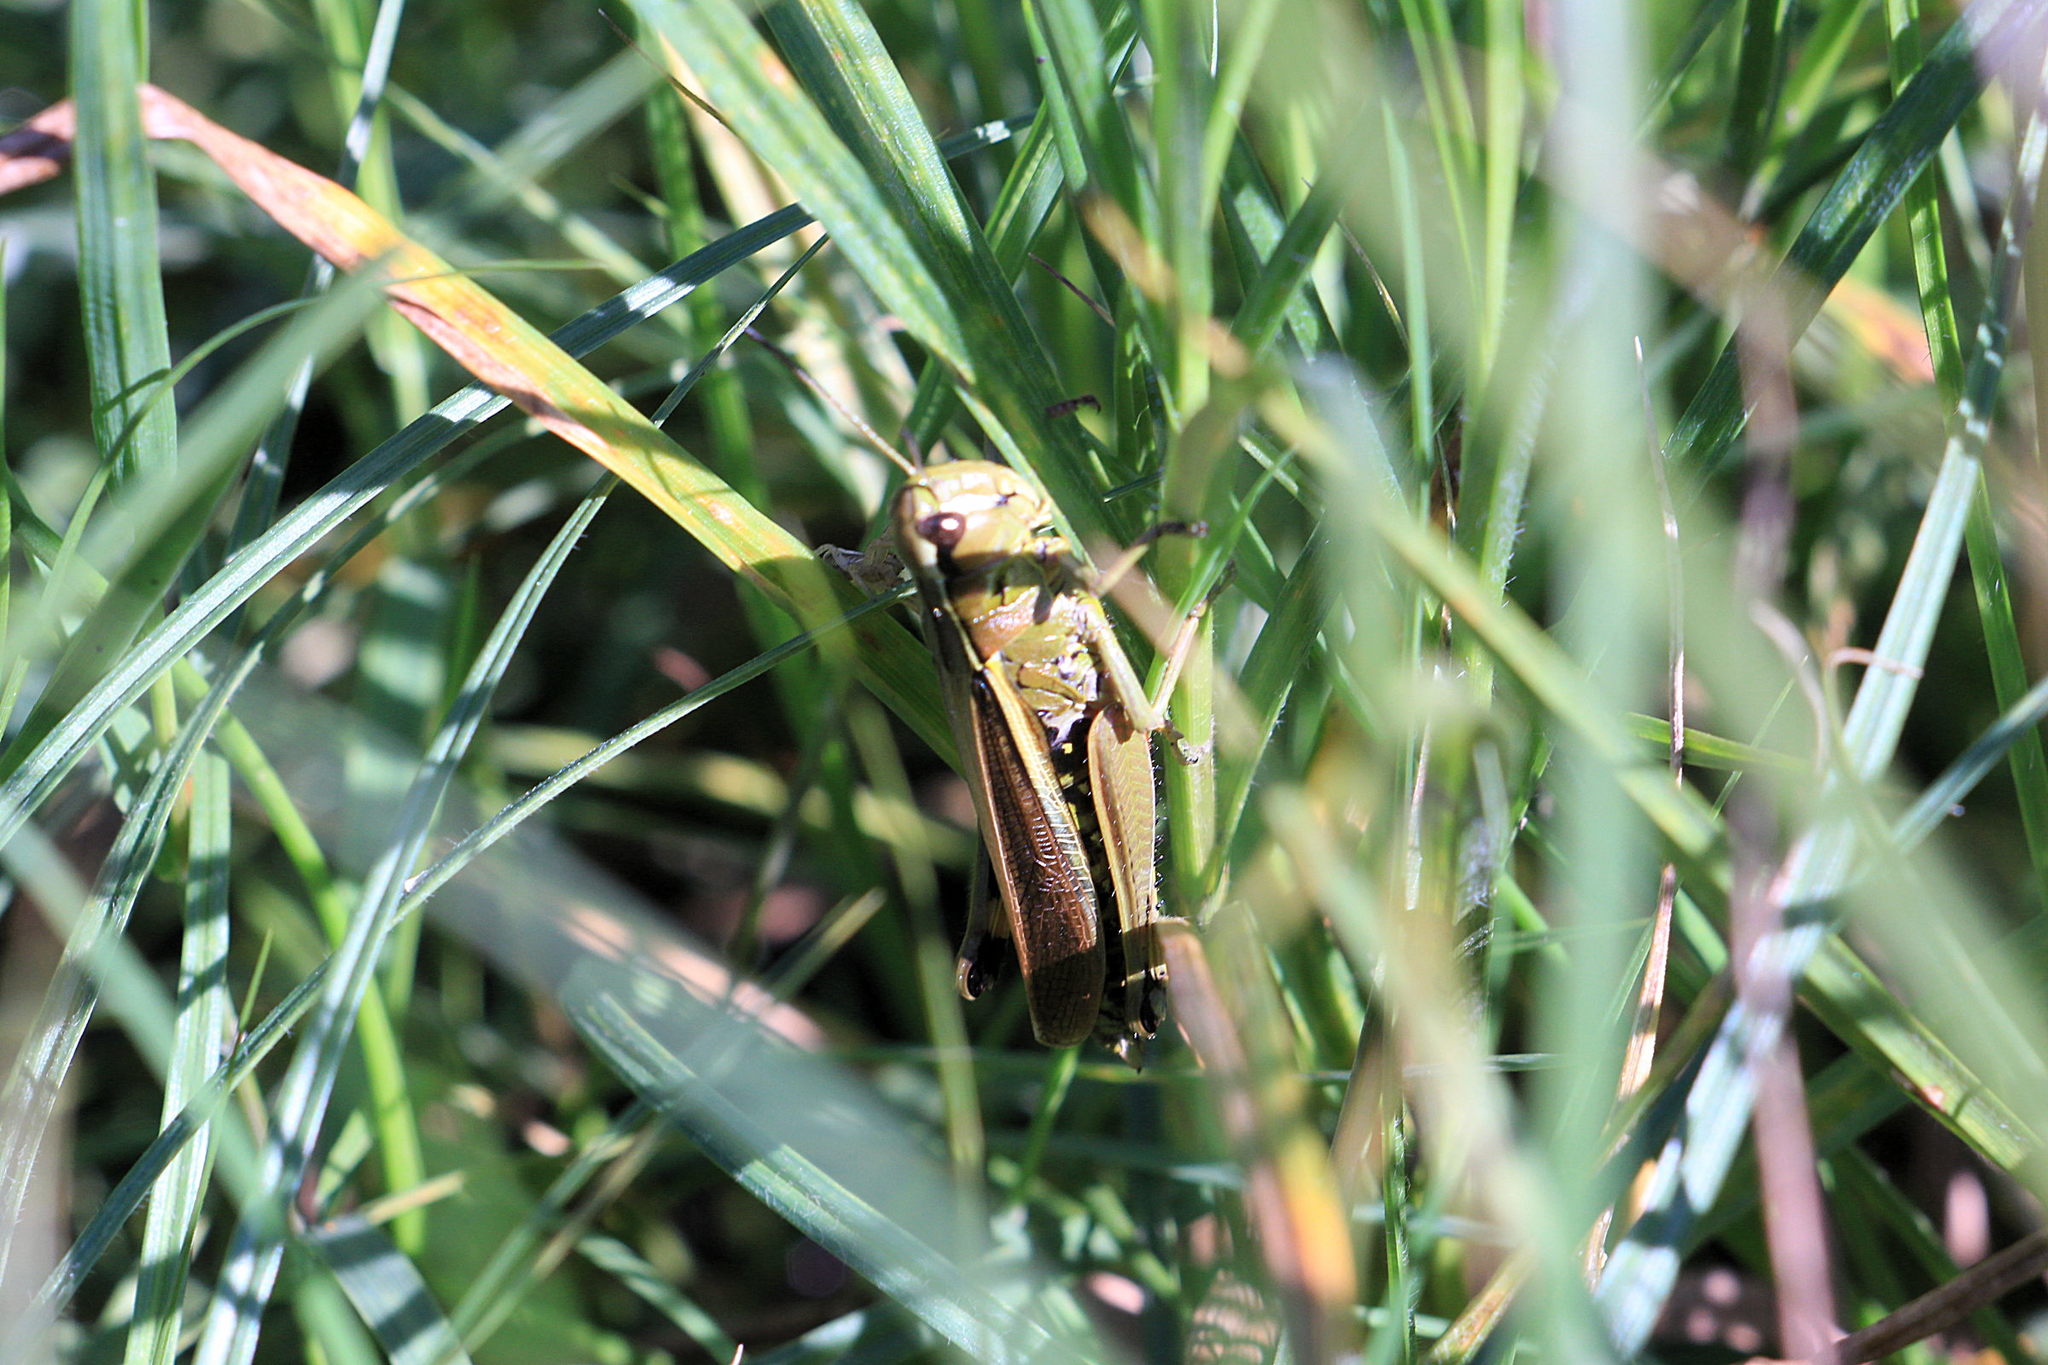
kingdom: Animalia
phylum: Arthropoda
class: Insecta
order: Orthoptera
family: Acrididae
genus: Stethophyma
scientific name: Stethophyma grossum
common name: Large marsh grasshopper
